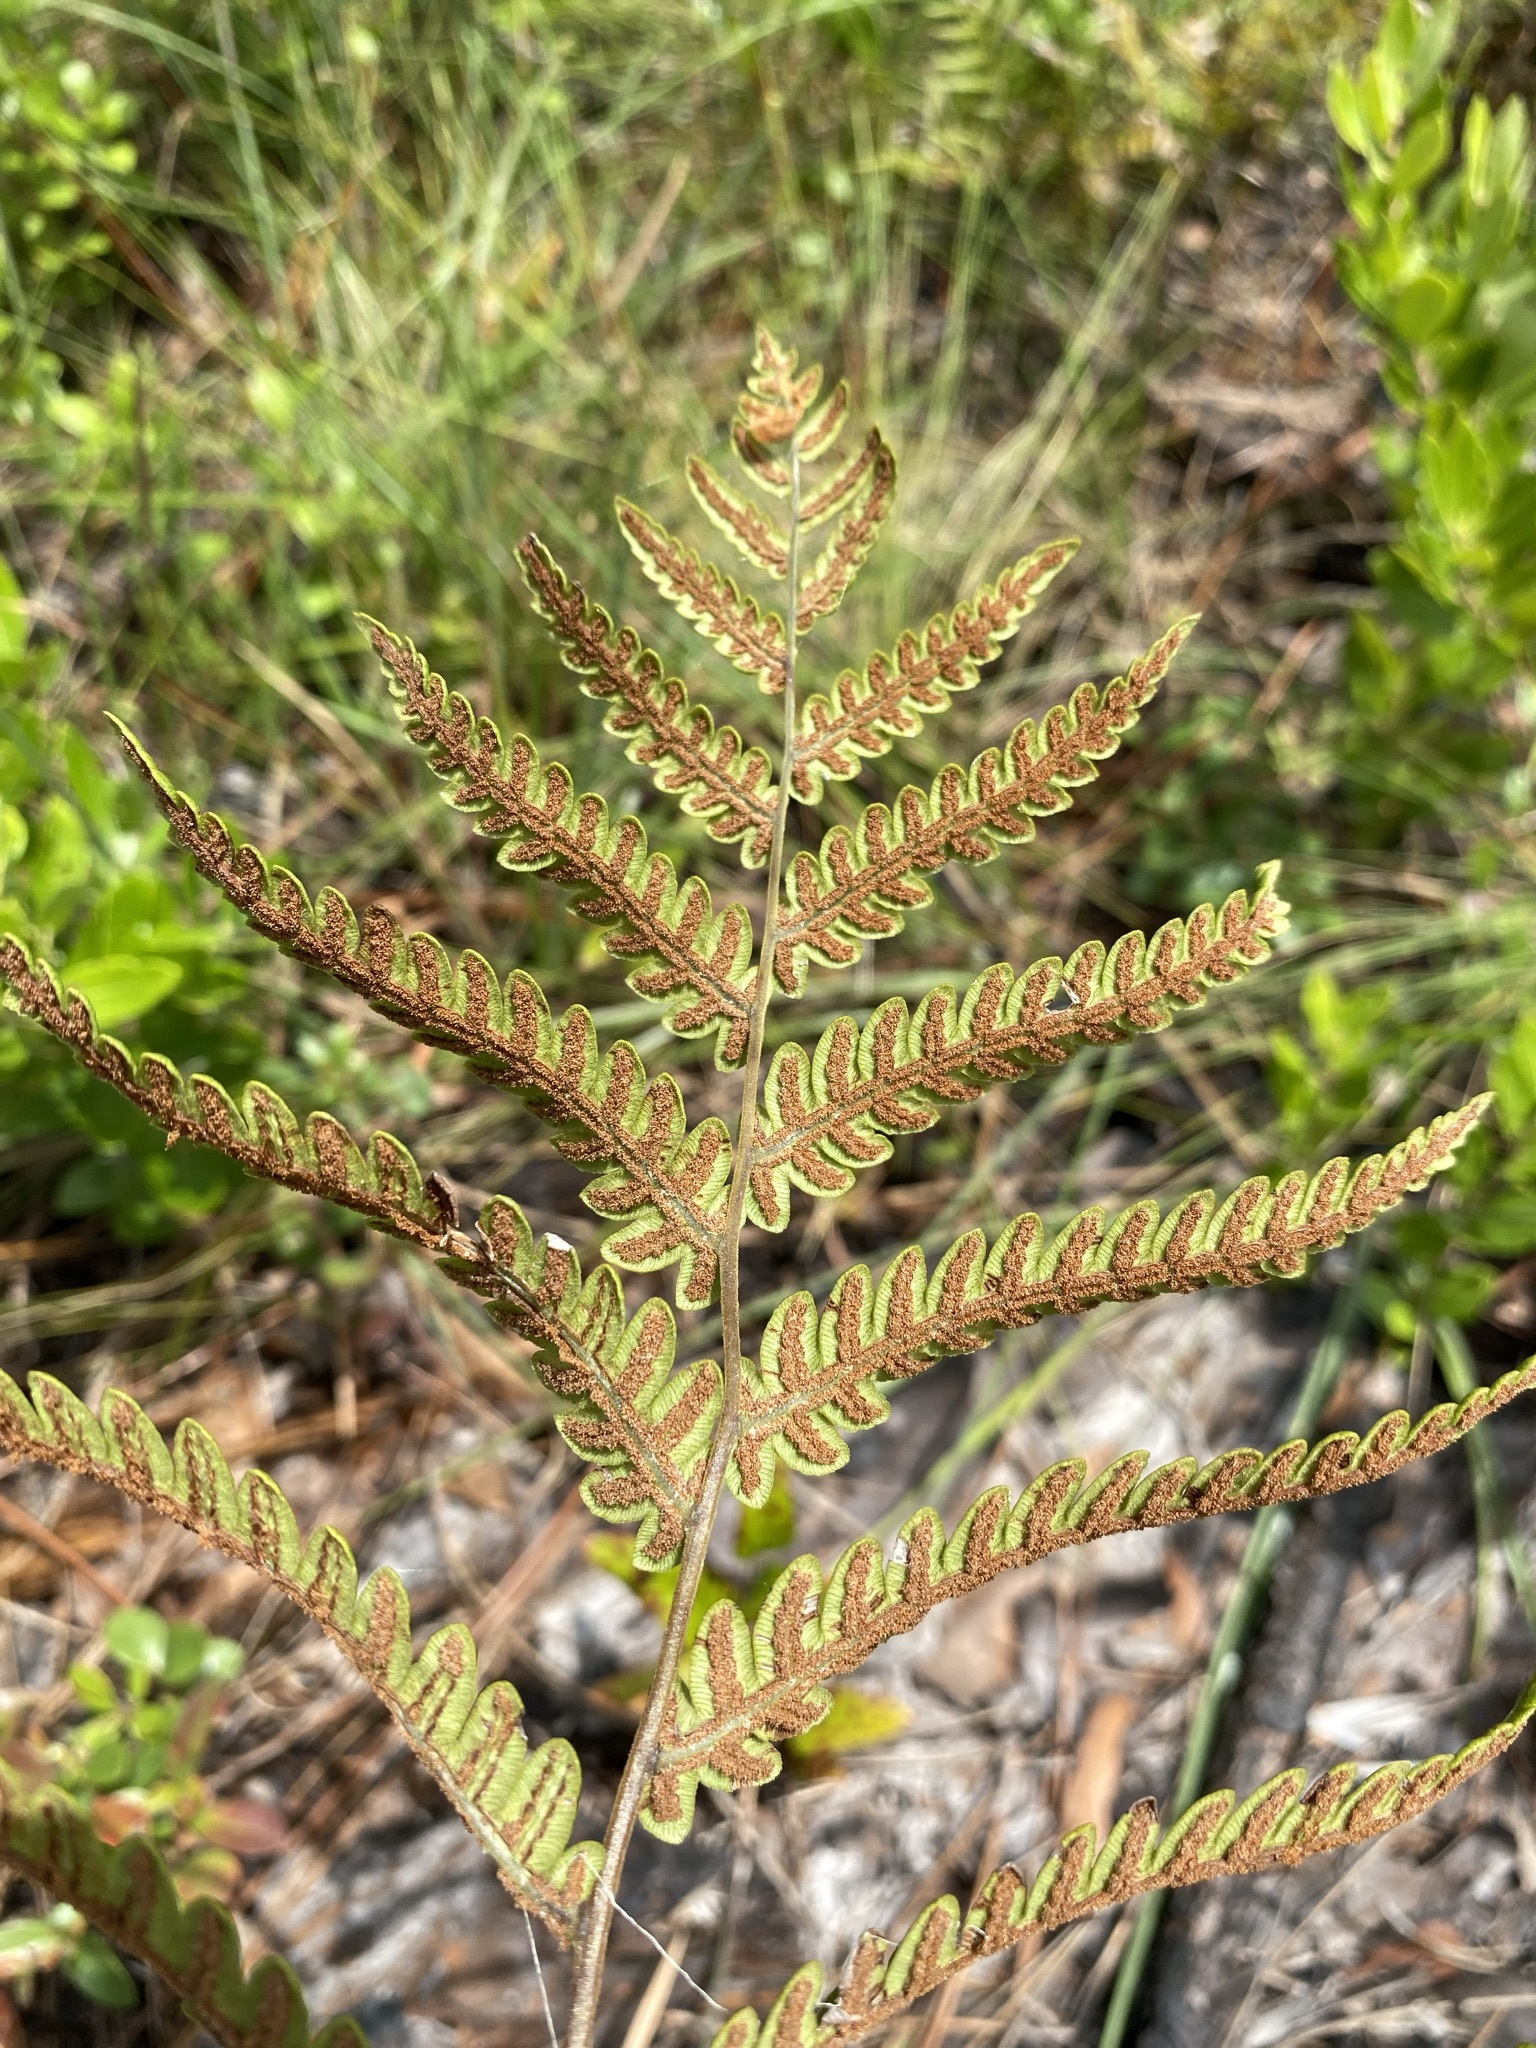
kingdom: Plantae
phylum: Tracheophyta
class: Polypodiopsida
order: Polypodiales
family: Blechnaceae
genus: Anchistea
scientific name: Anchistea virginica
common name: Virginia chain fern
